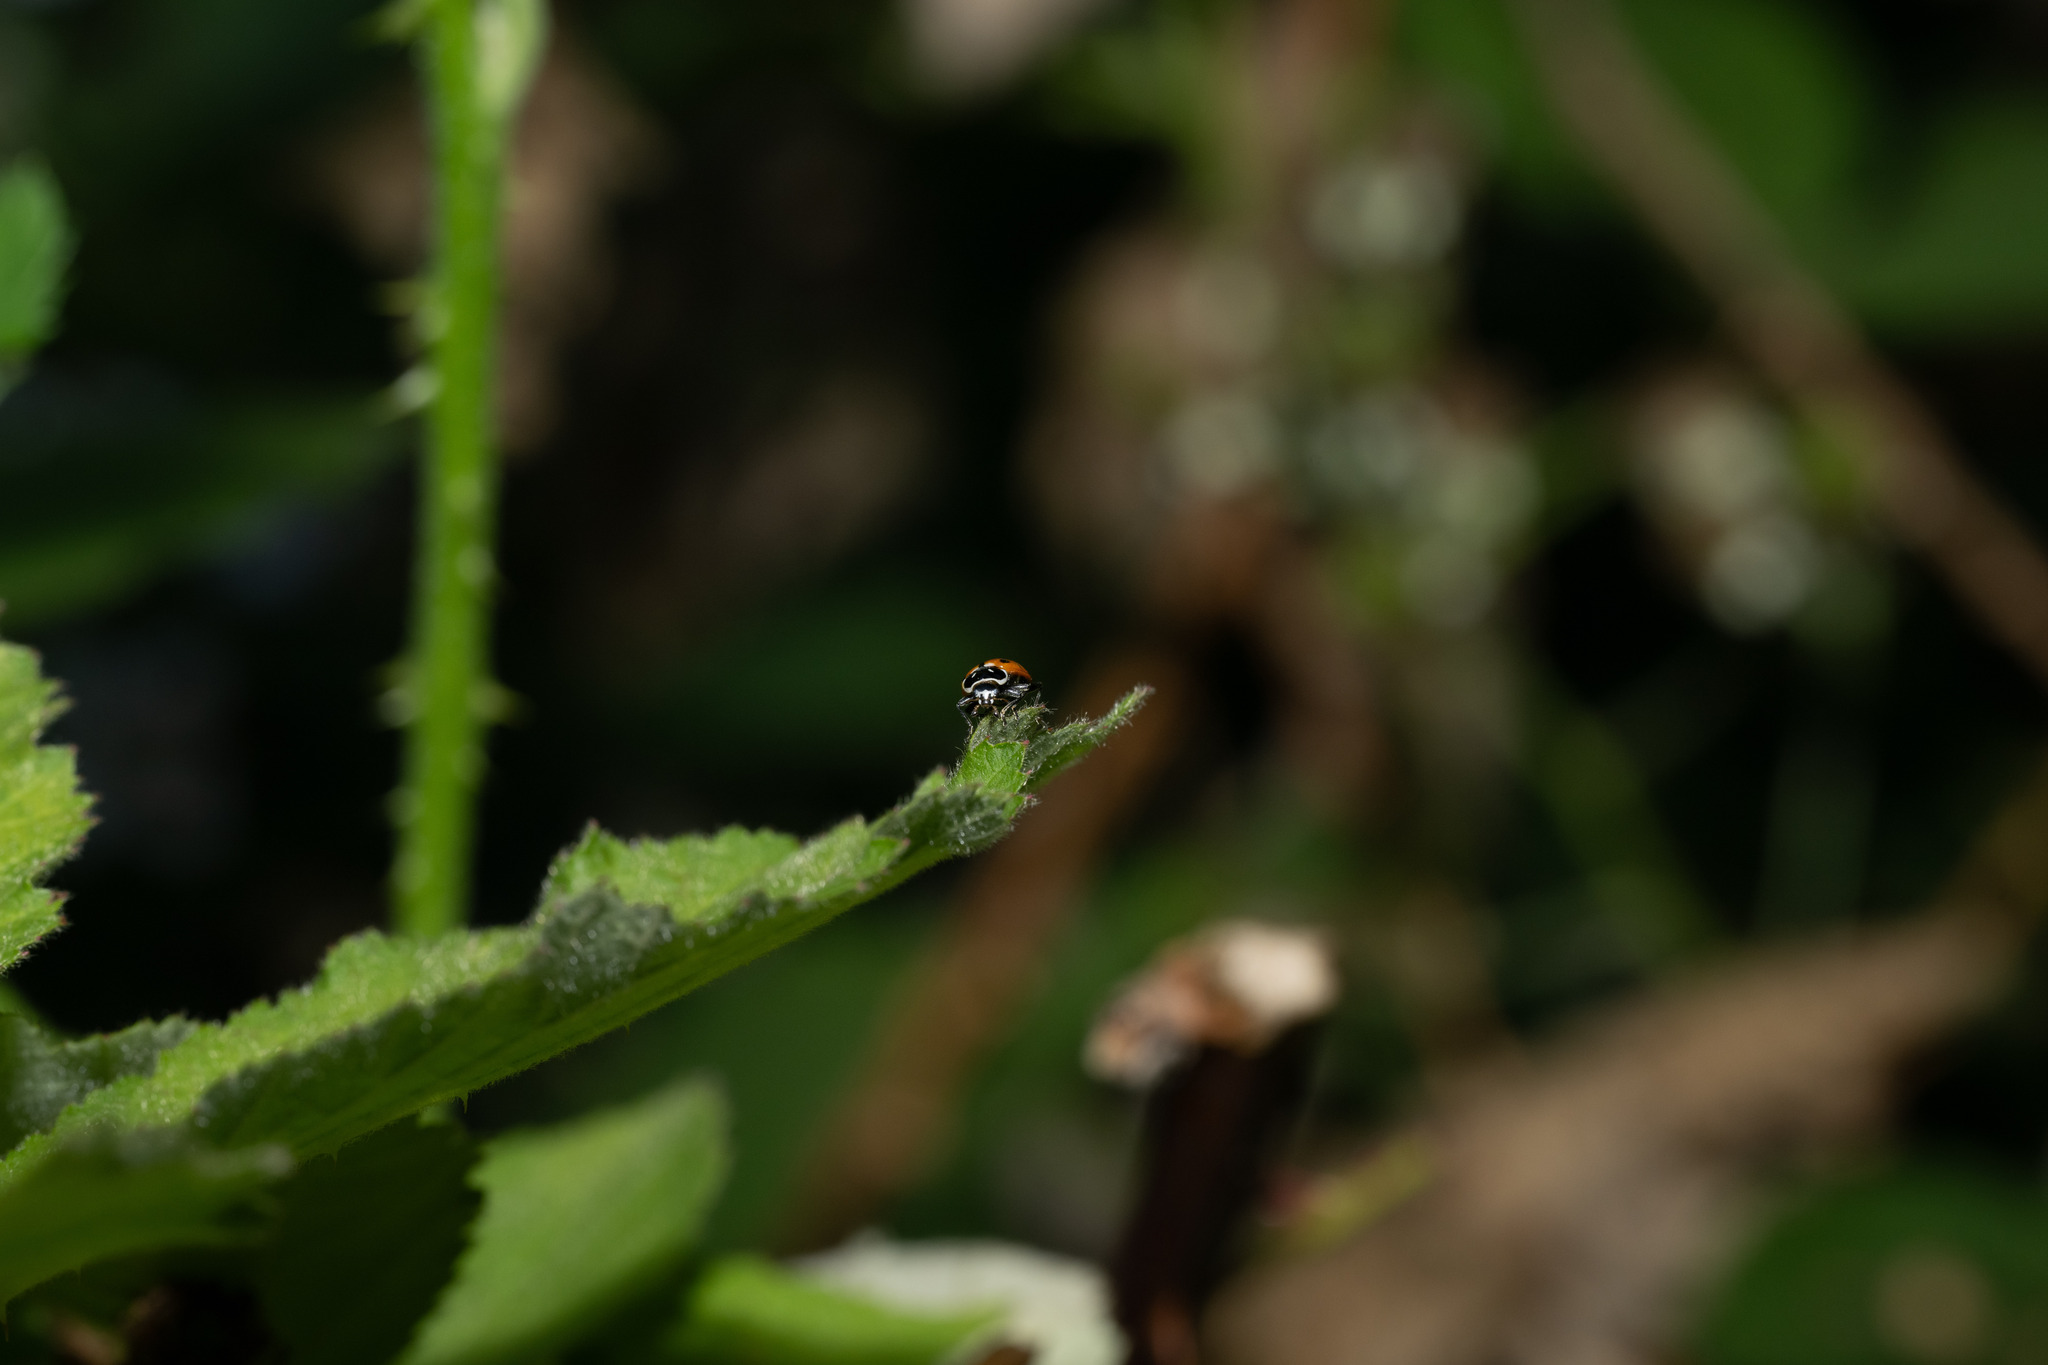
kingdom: Animalia
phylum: Arthropoda
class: Insecta
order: Coleoptera
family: Coccinellidae
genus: Hippodamia
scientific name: Hippodamia convergens
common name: Convergent lady beetle
